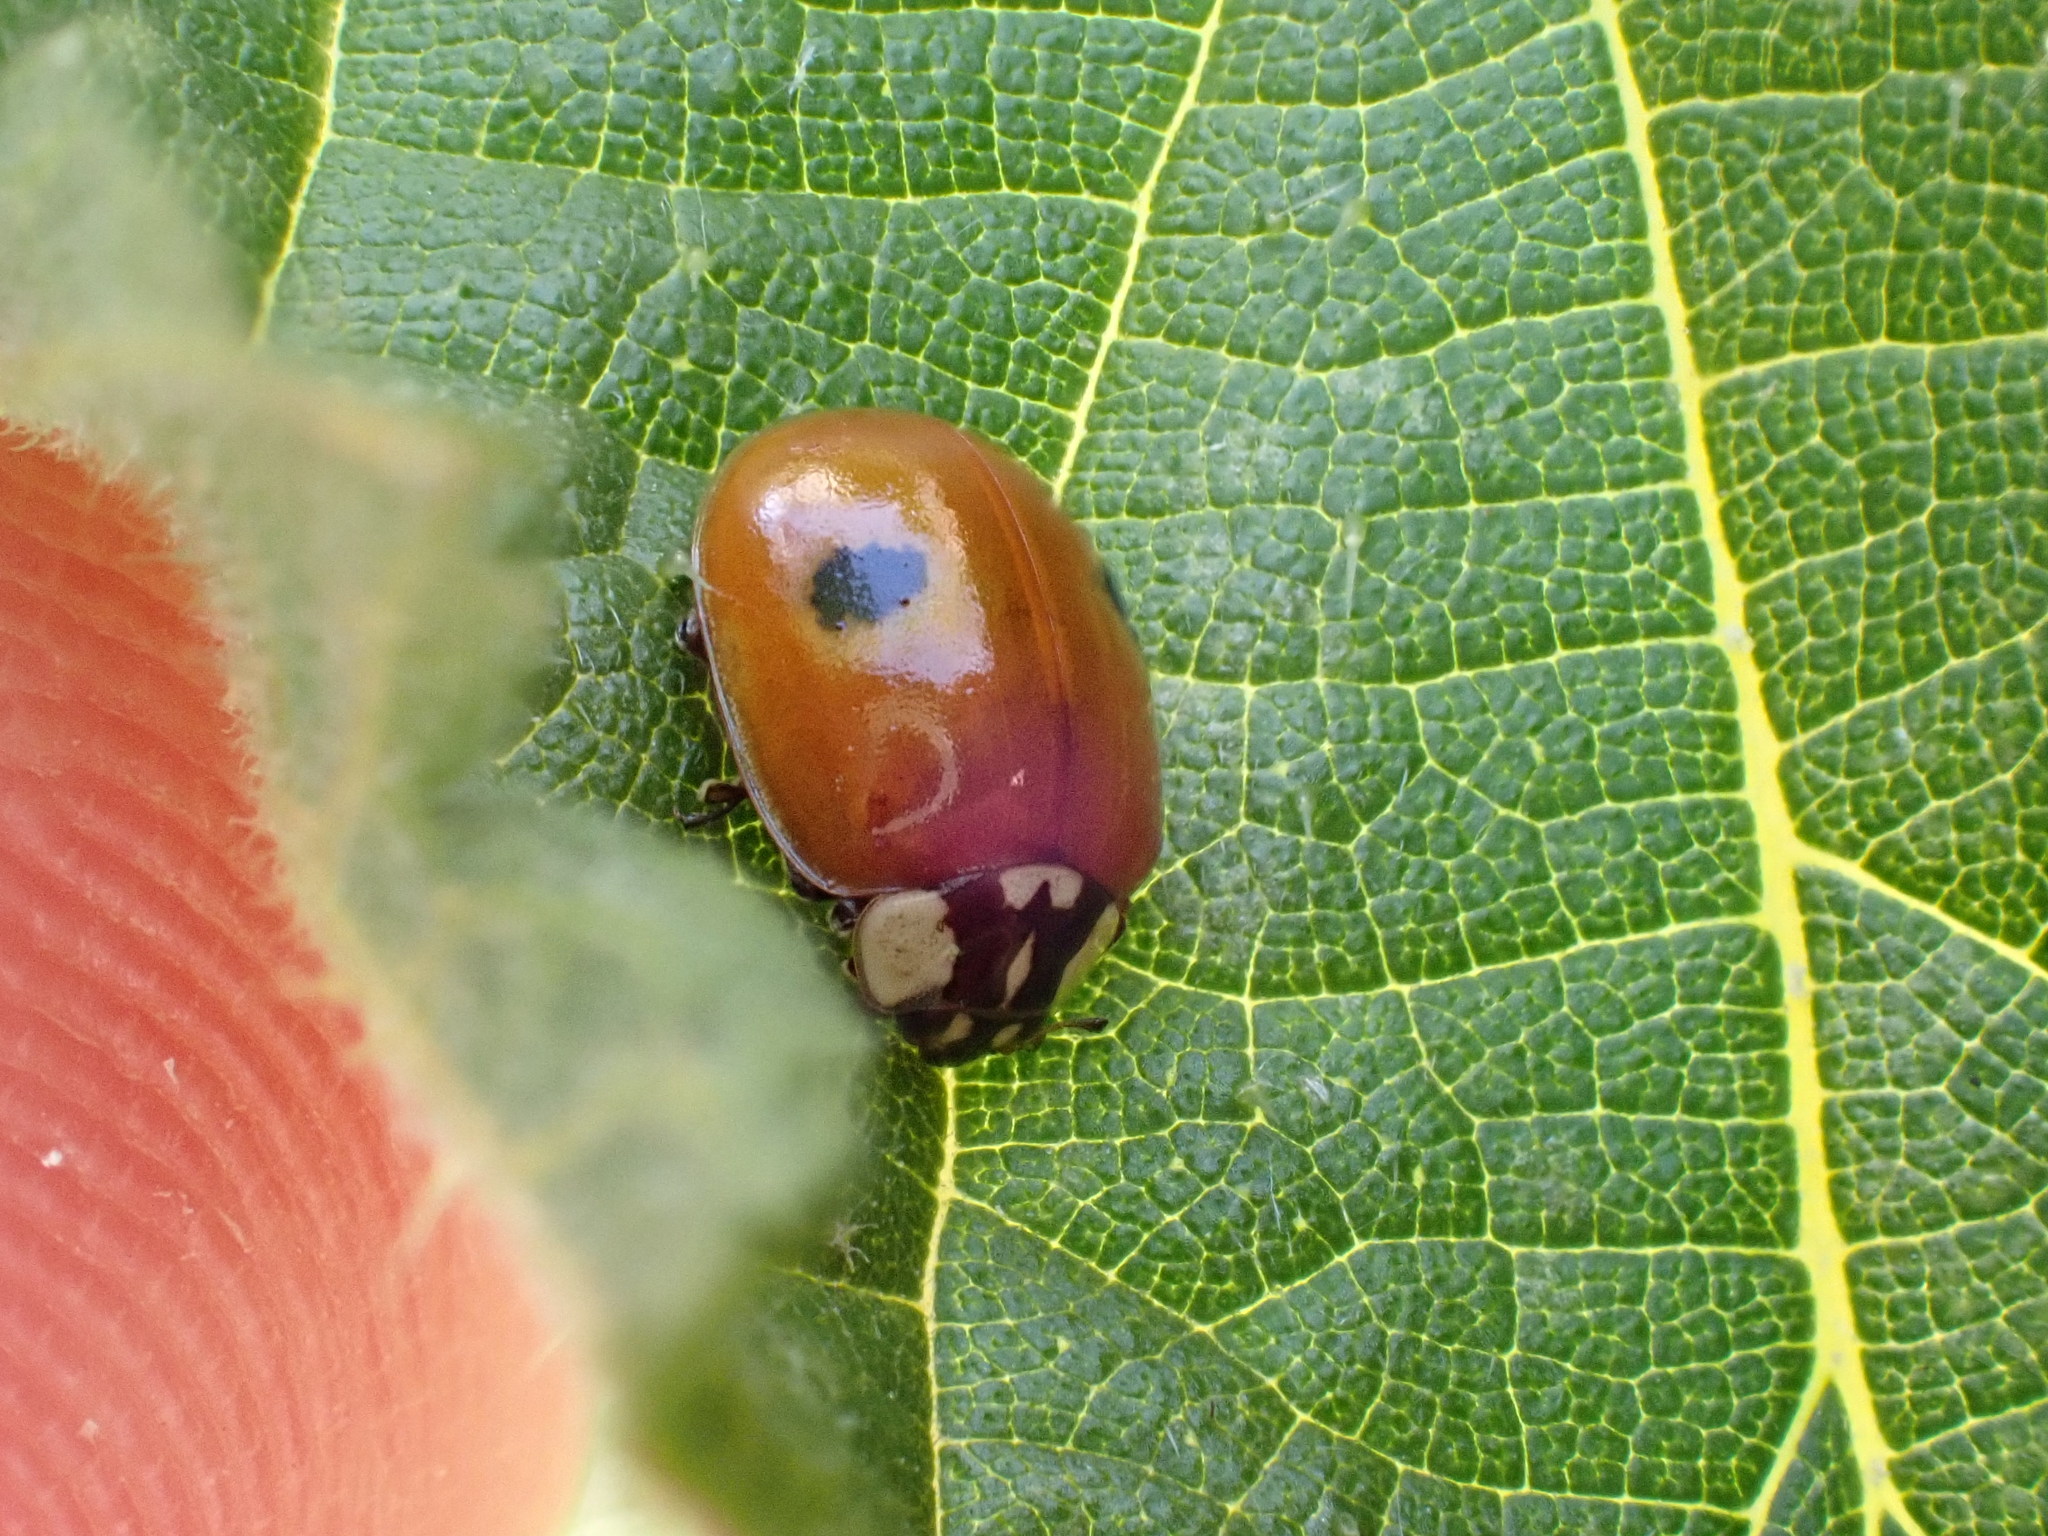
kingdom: Animalia
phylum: Arthropoda
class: Insecta
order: Coleoptera
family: Coccinellidae
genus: Adalia
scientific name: Adalia bipunctata
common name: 2-spot ladybird
